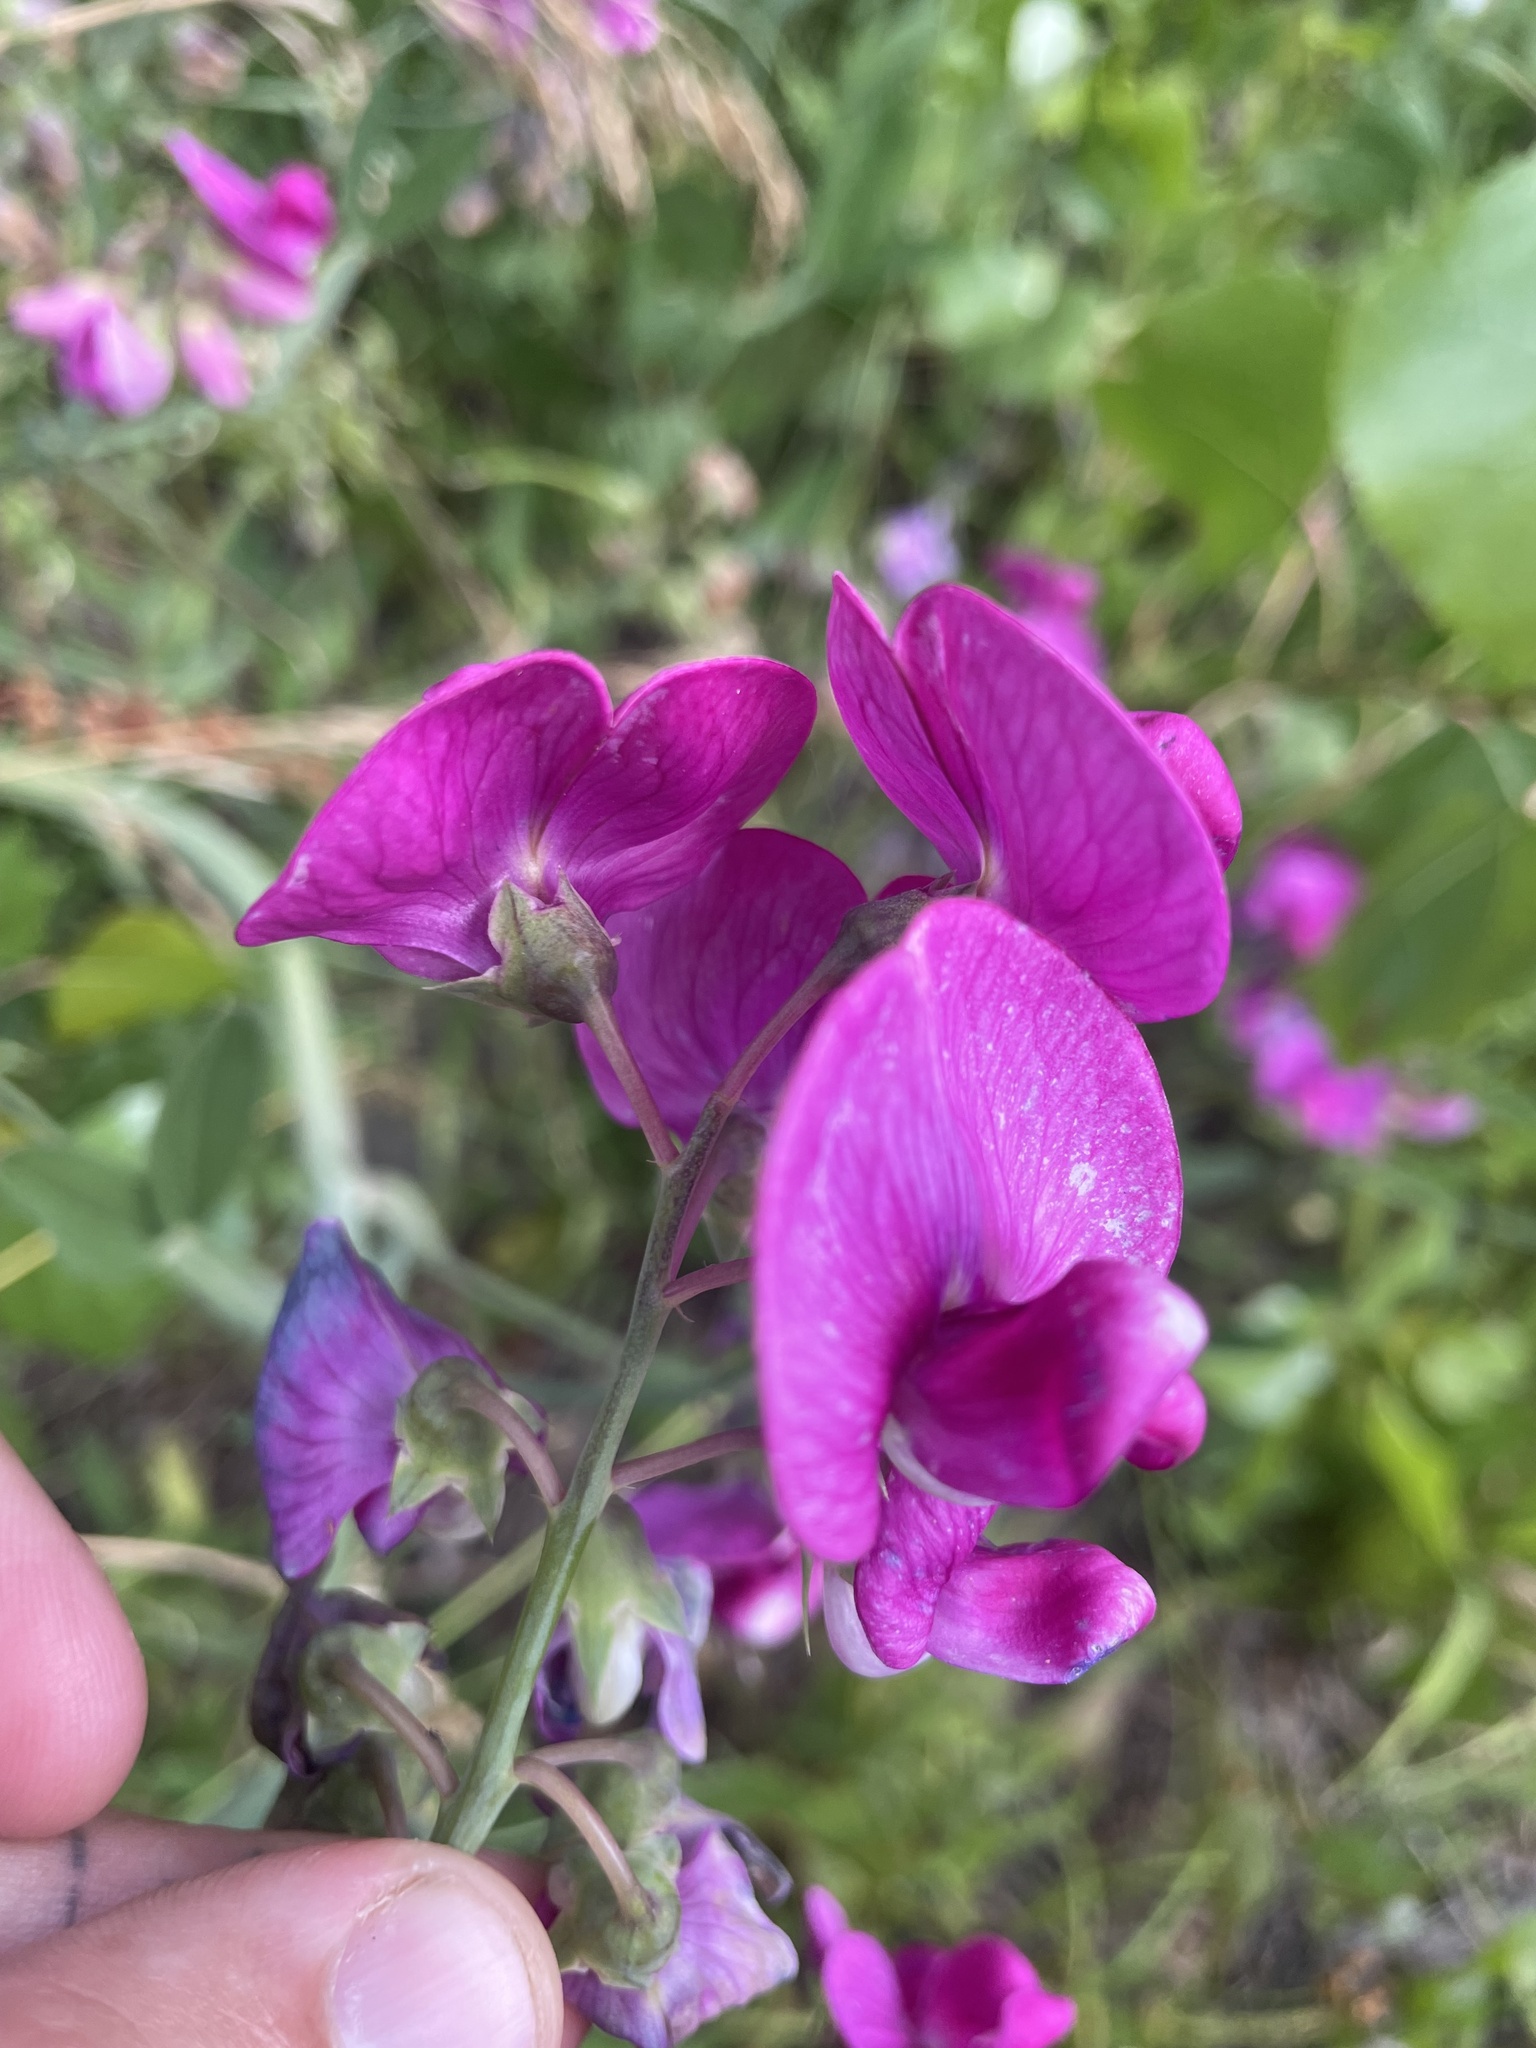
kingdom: Plantae
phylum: Tracheophyta
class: Magnoliopsida
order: Fabales
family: Fabaceae
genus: Lathyrus
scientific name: Lathyrus latifolius
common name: Perennial pea
